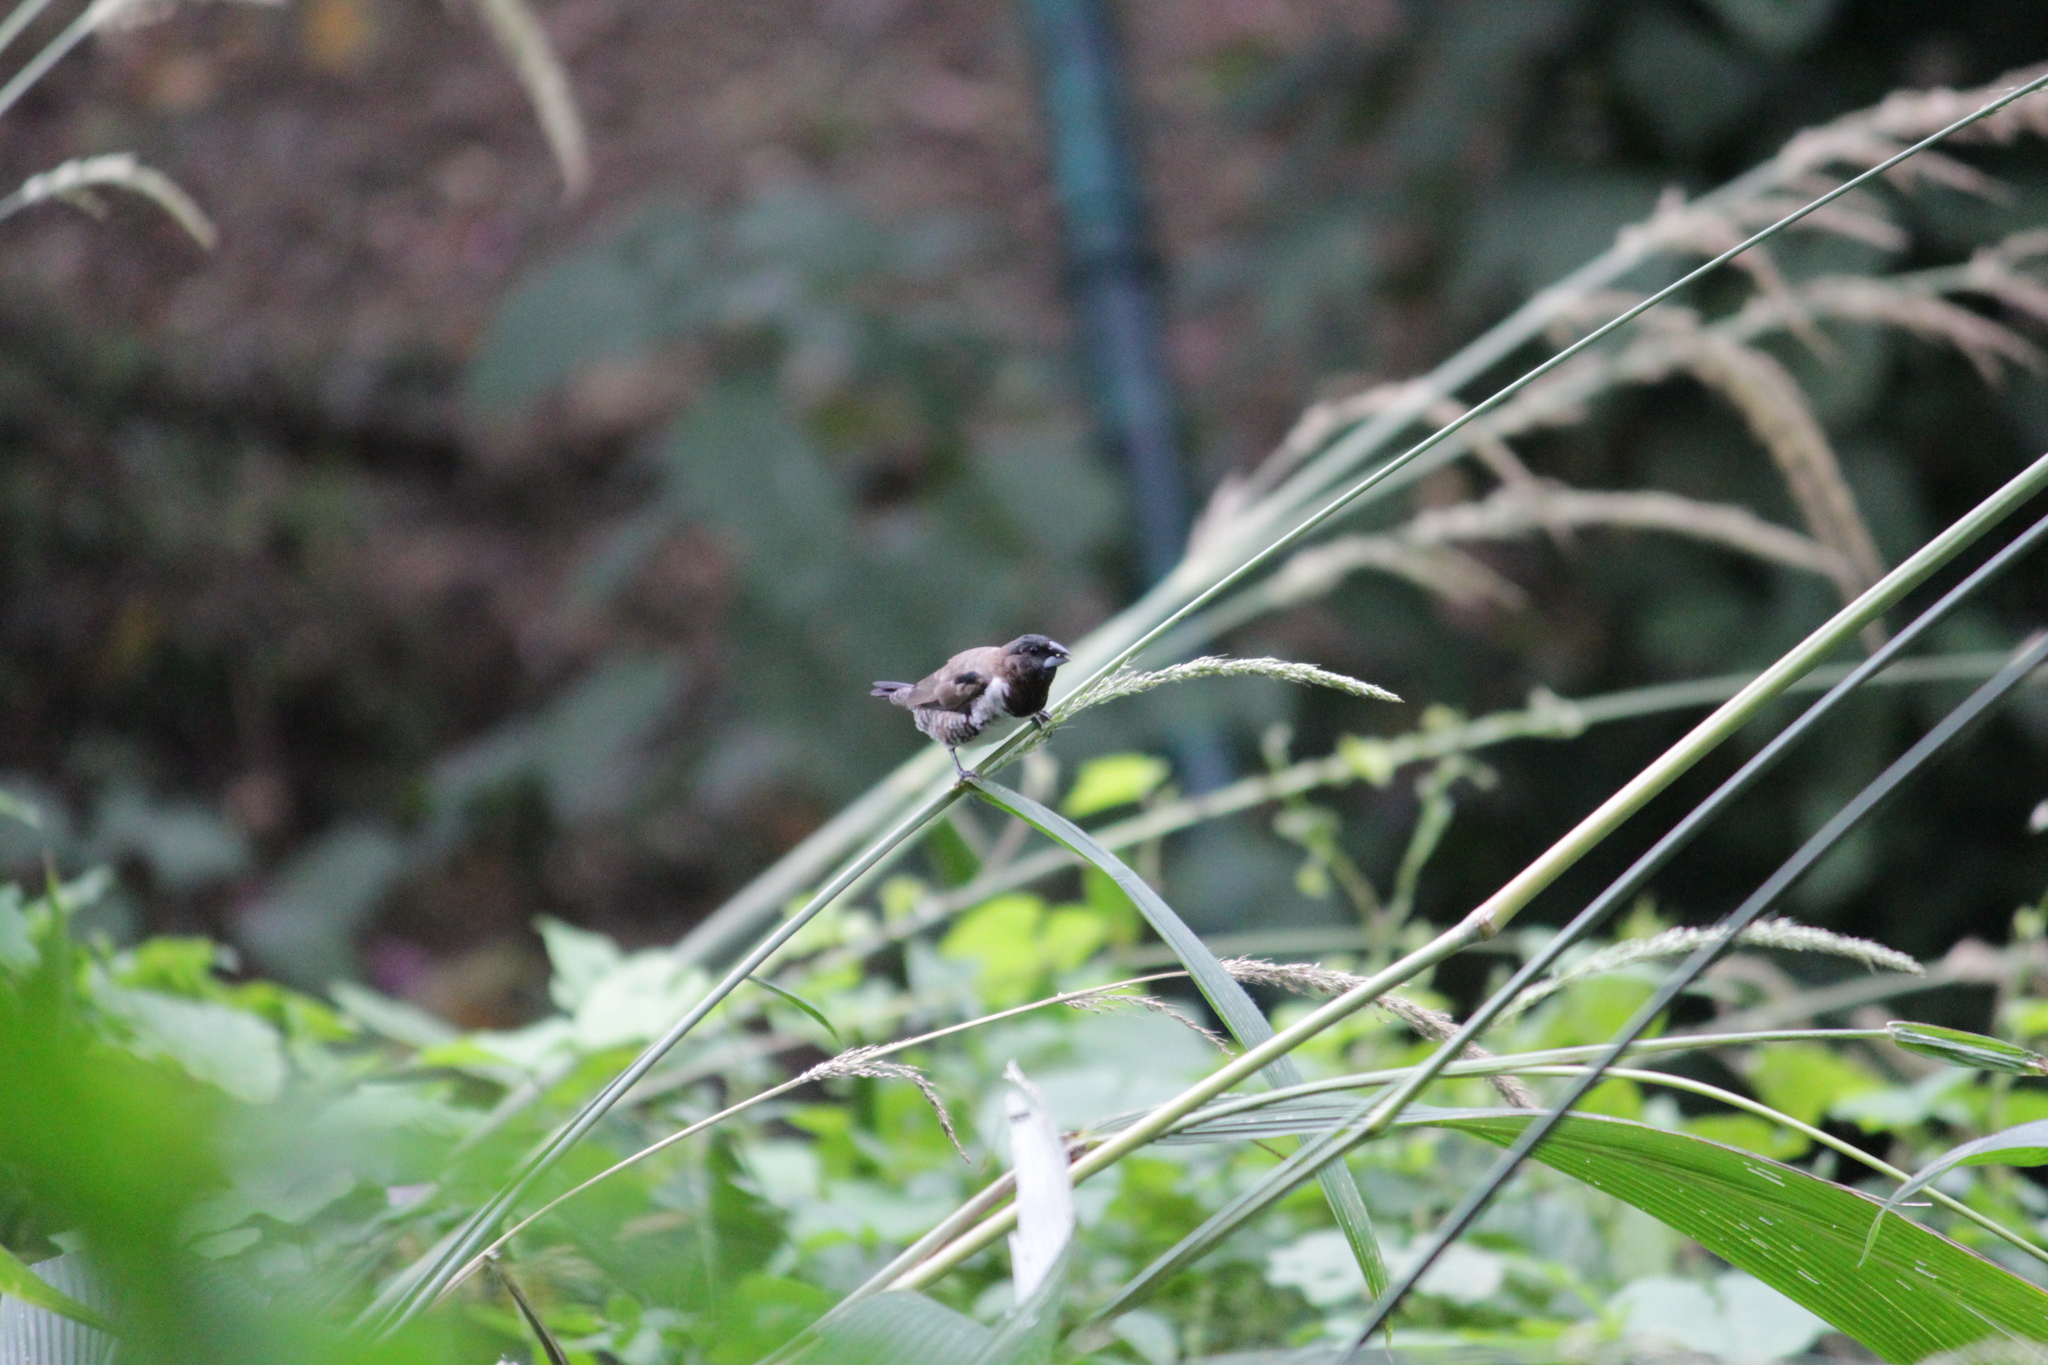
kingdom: Animalia
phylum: Chordata
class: Aves
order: Passeriformes
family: Estrildidae
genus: Lonchura
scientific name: Lonchura cucullata
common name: Bronze mannikin
